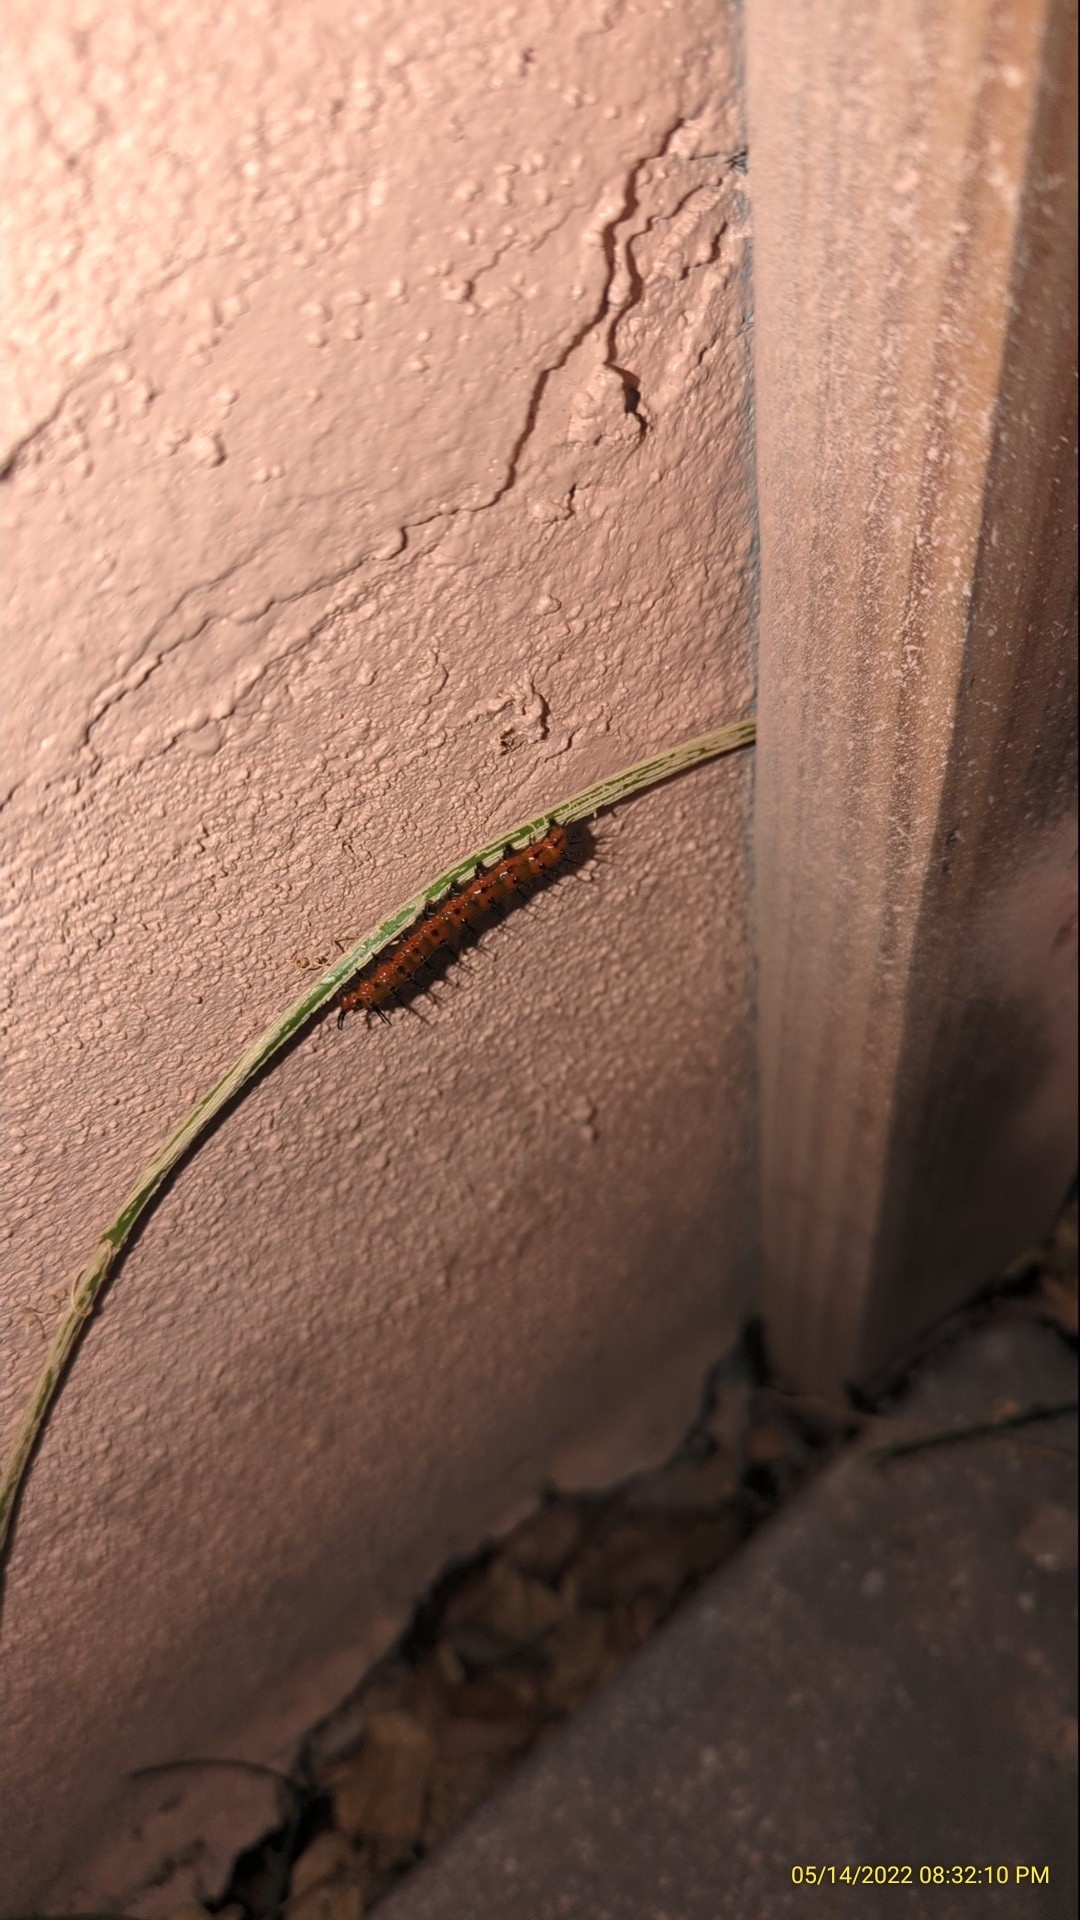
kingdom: Animalia
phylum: Arthropoda
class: Insecta
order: Lepidoptera
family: Nymphalidae
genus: Dione
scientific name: Dione vanillae
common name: Gulf fritillary
